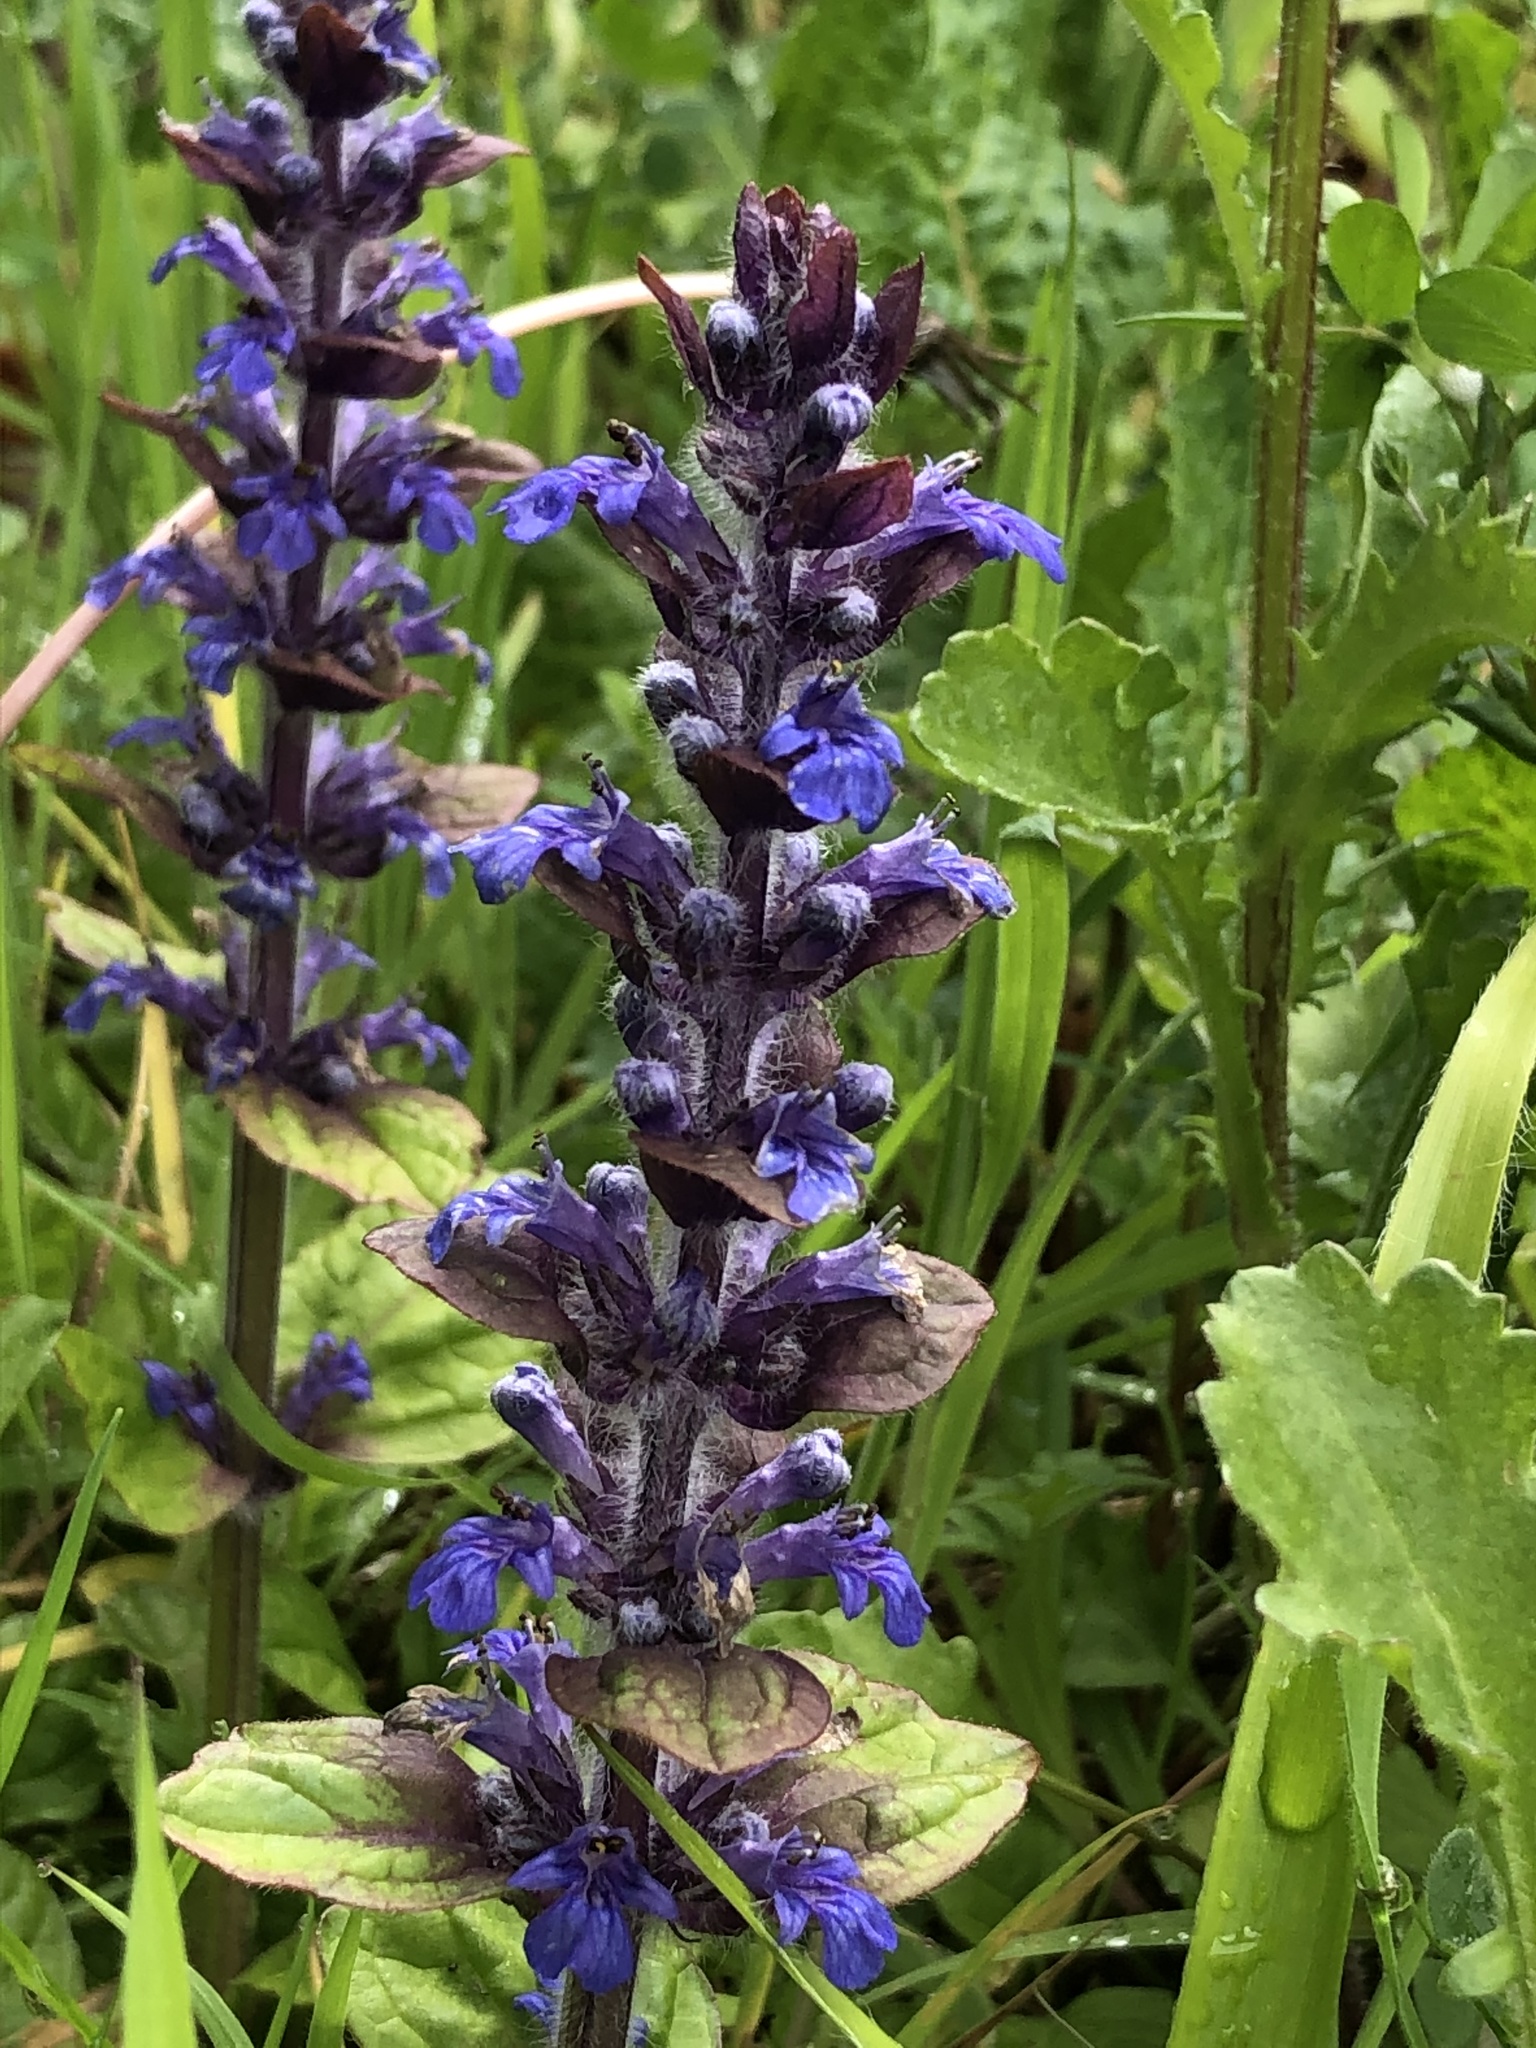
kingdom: Plantae
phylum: Tracheophyta
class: Magnoliopsida
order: Lamiales
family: Lamiaceae
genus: Ajuga
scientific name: Ajuga reptans
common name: Bugle
